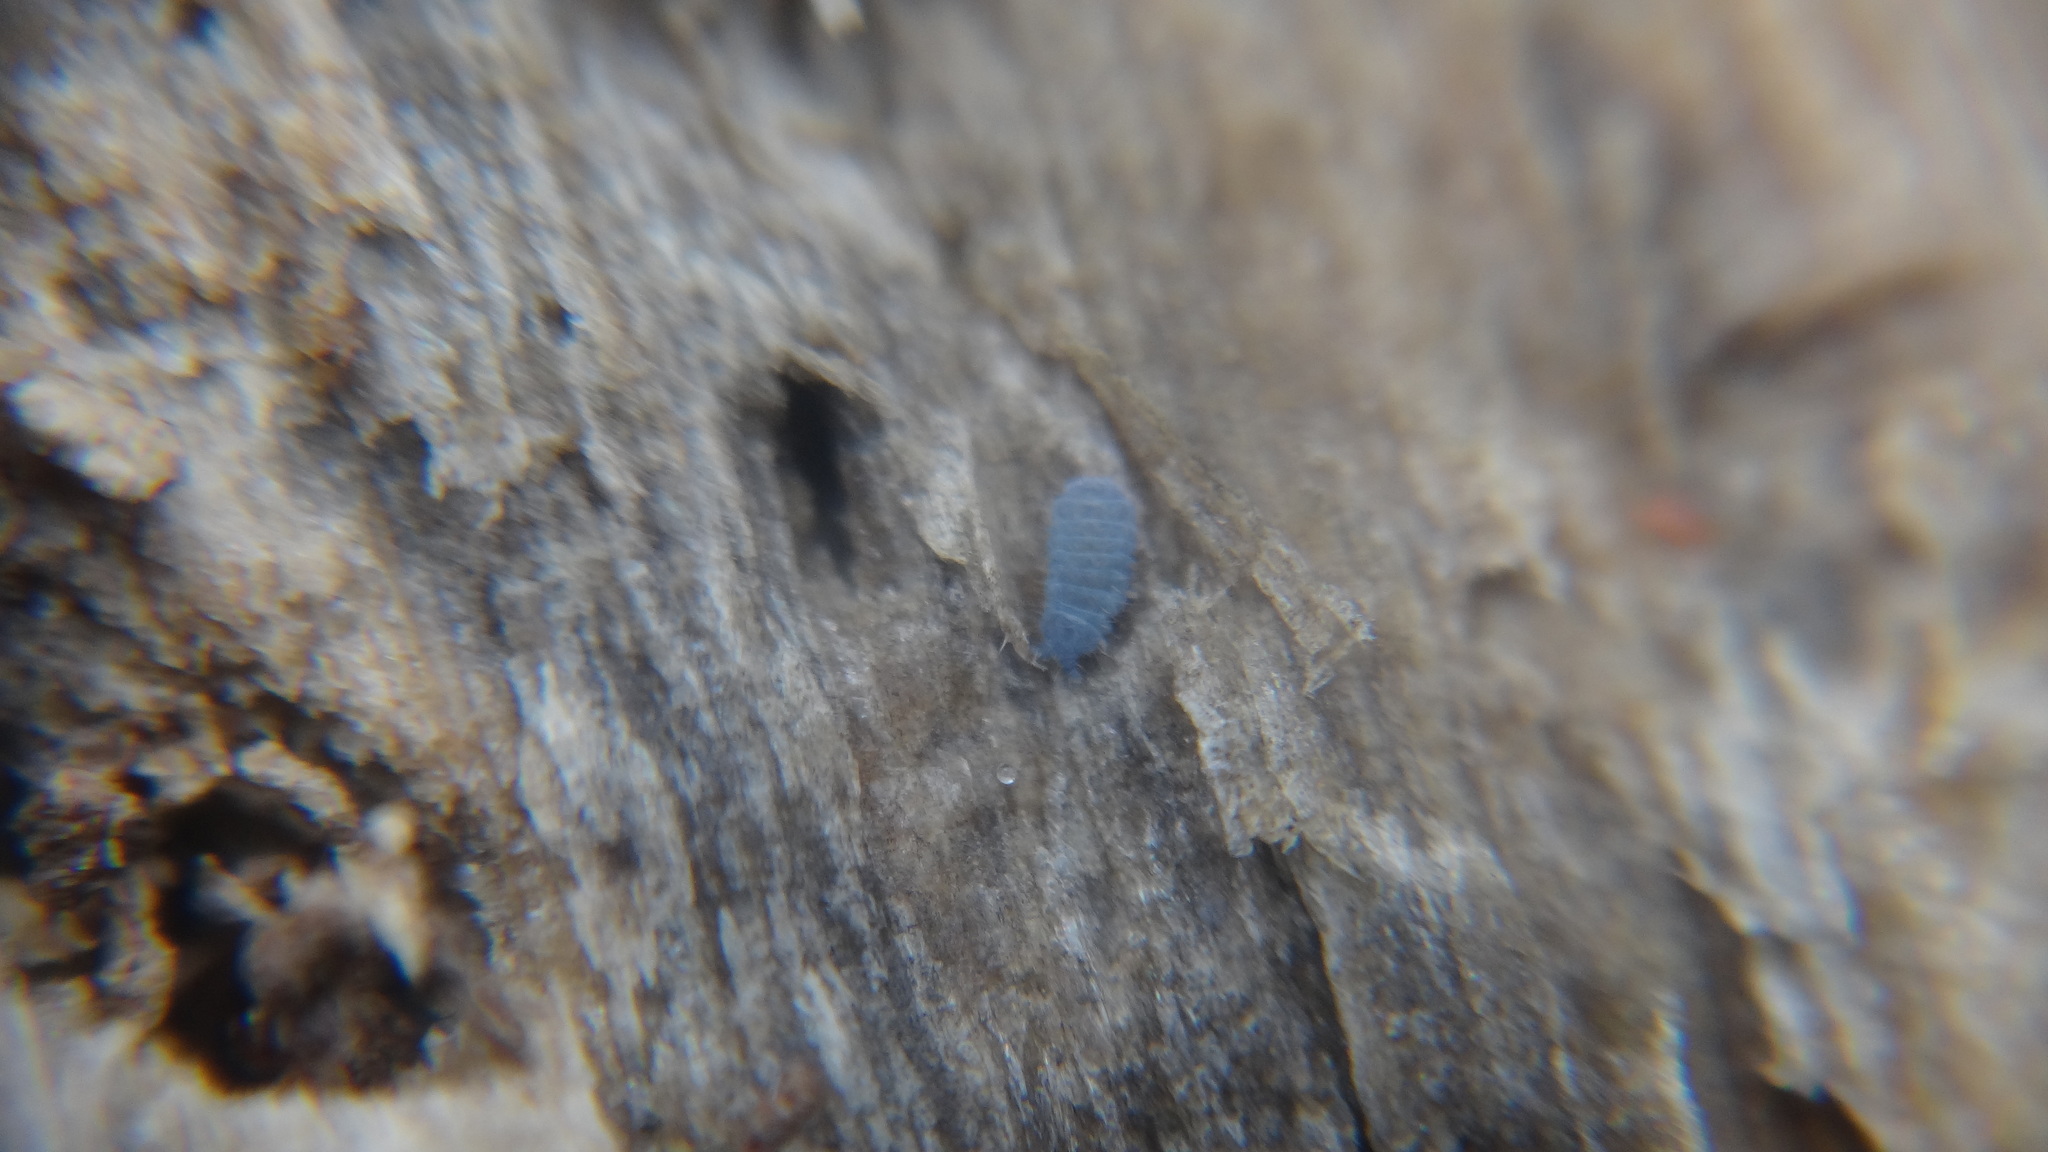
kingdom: Animalia
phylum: Arthropoda
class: Collembola
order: Poduromorpha
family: Neanuridae
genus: Neanura
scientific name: Neanura muscorum
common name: Springtail
